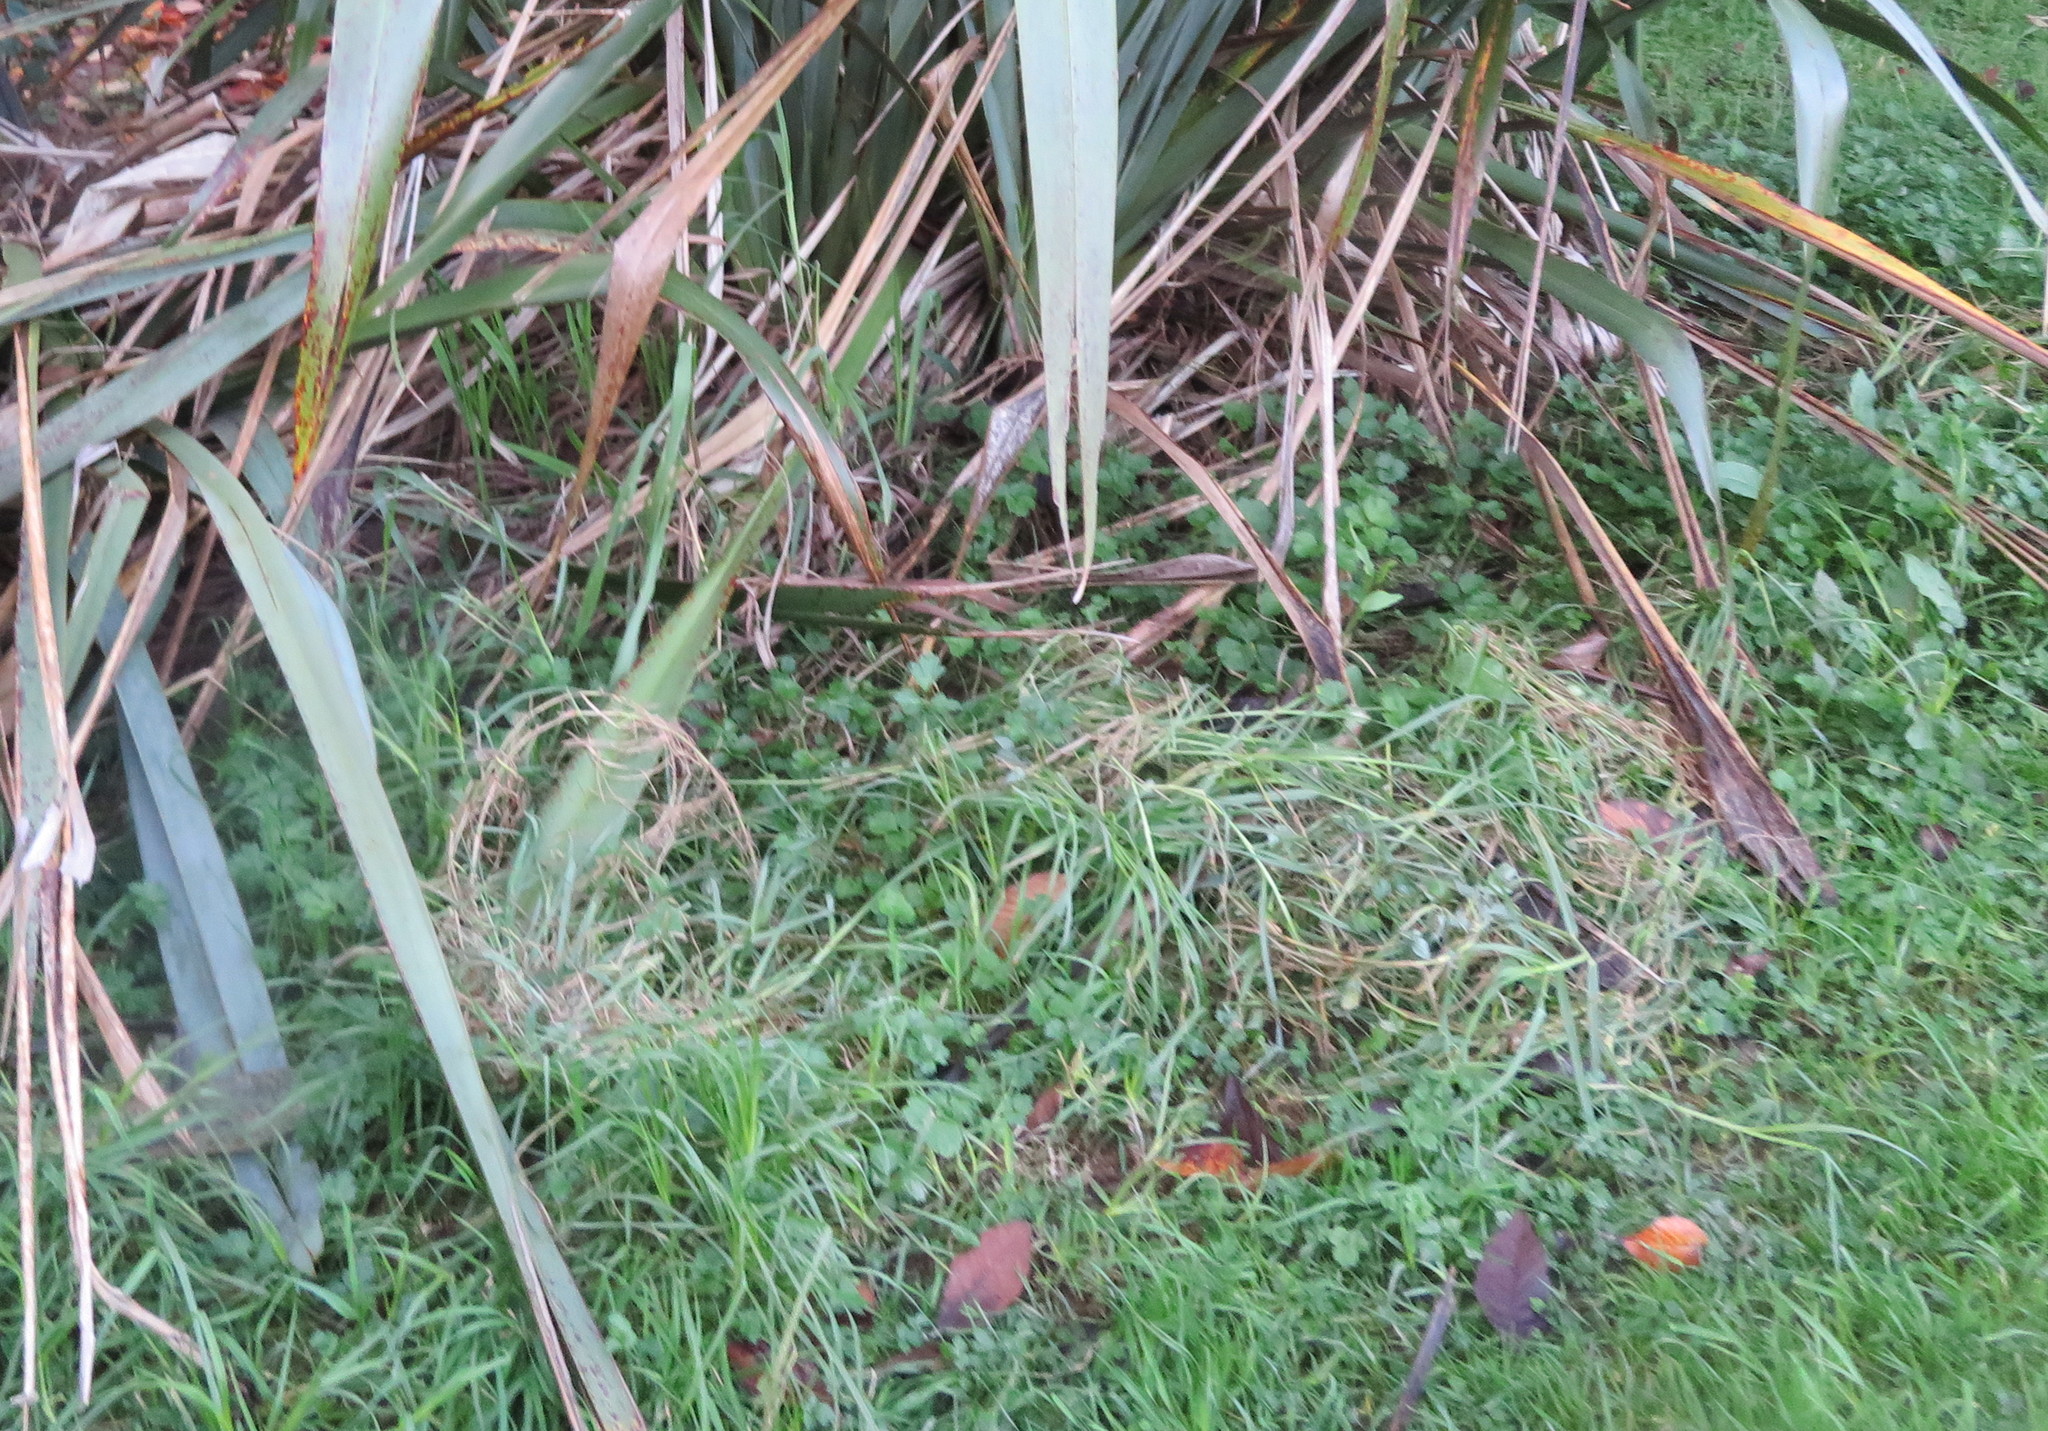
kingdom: Plantae
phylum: Tracheophyta
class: Liliopsida
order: Asparagales
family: Asphodelaceae
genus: Phormium
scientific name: Phormium tenax
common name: New zealand flax
